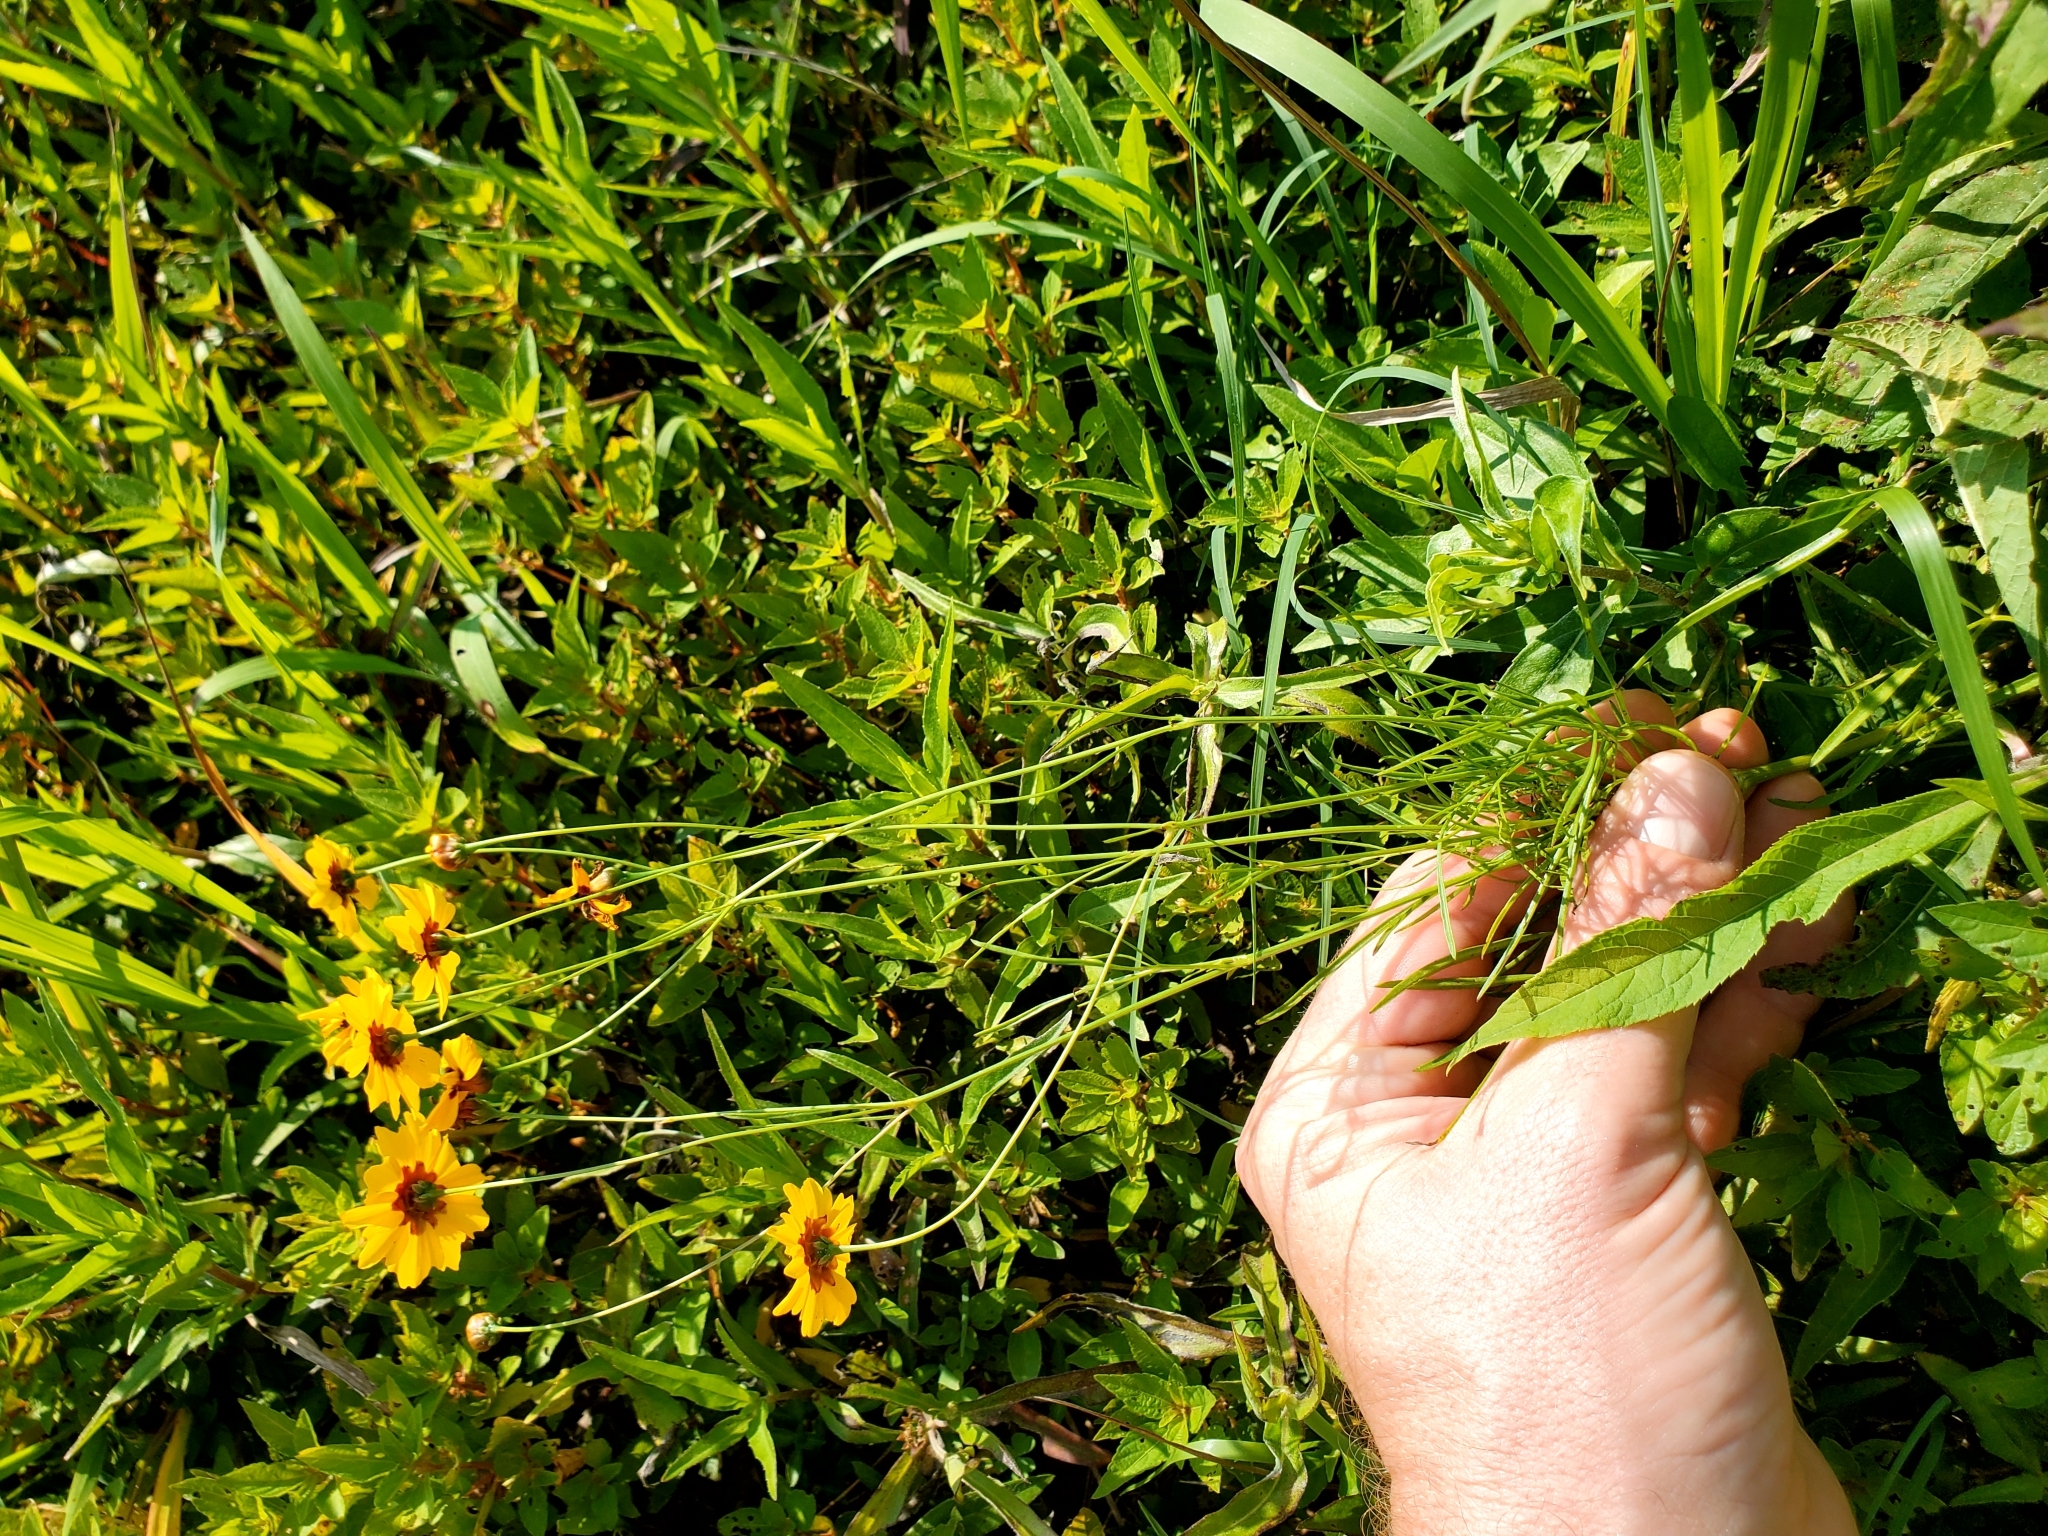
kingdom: Plantae
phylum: Tracheophyta
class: Magnoliopsida
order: Asterales
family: Asteraceae
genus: Coreopsis
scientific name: Coreopsis tinctoria
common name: Garden tickseed
